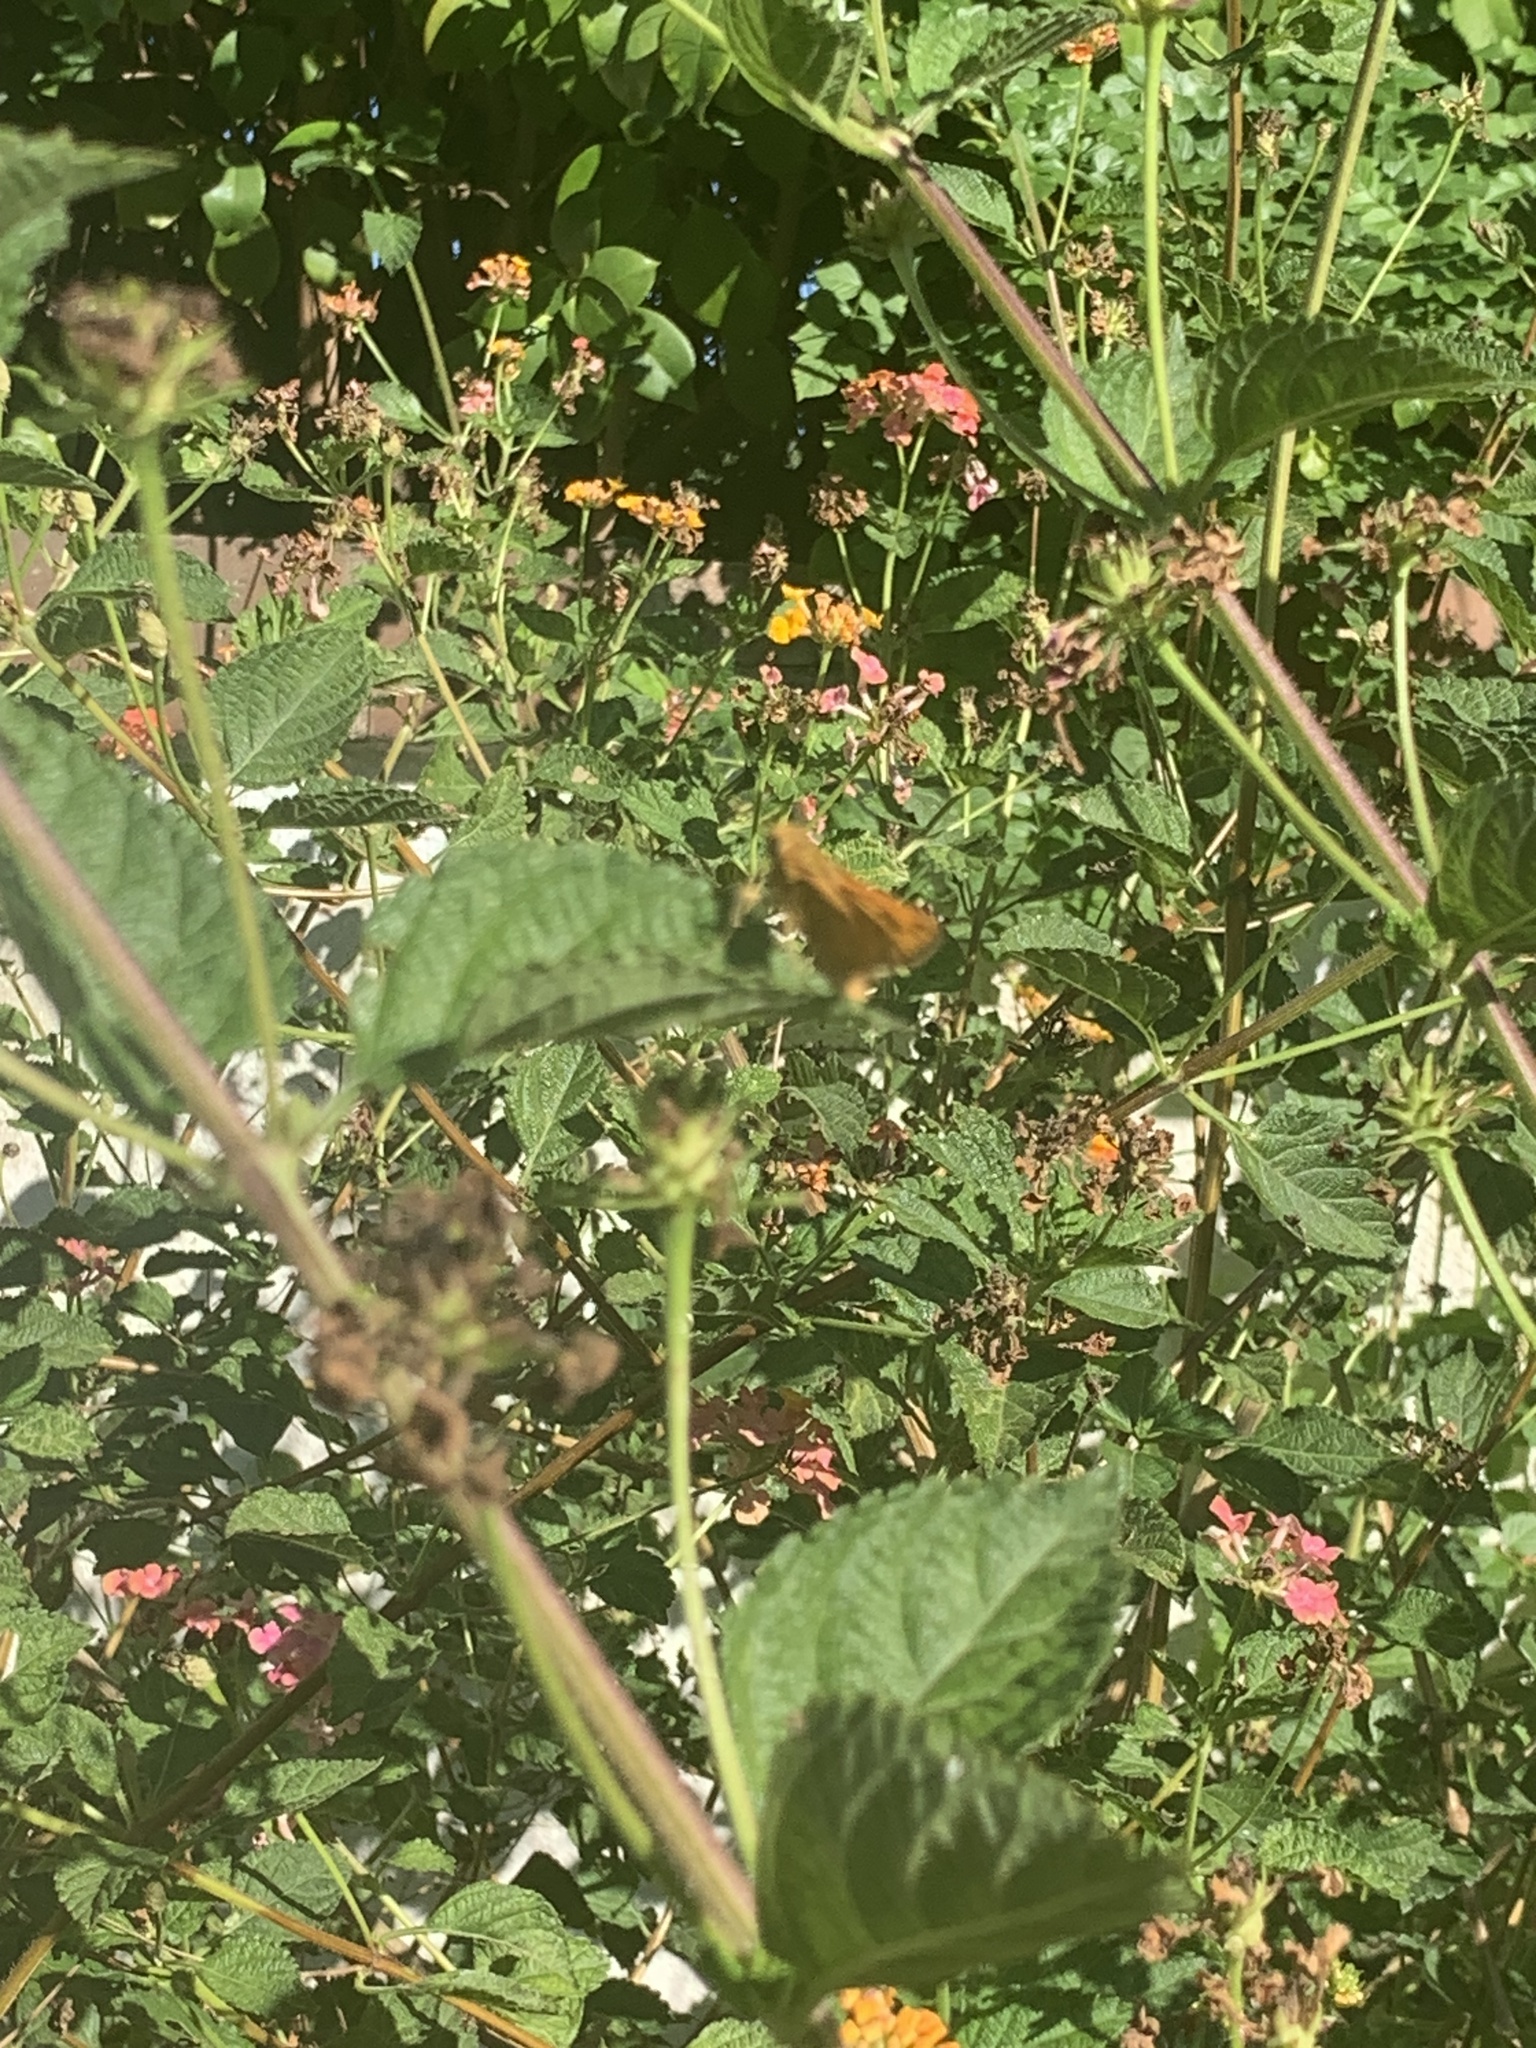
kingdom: Animalia
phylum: Arthropoda
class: Insecta
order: Lepidoptera
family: Hesperiidae
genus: Hylephila
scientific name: Hylephila phyleus
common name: Fiery skipper
